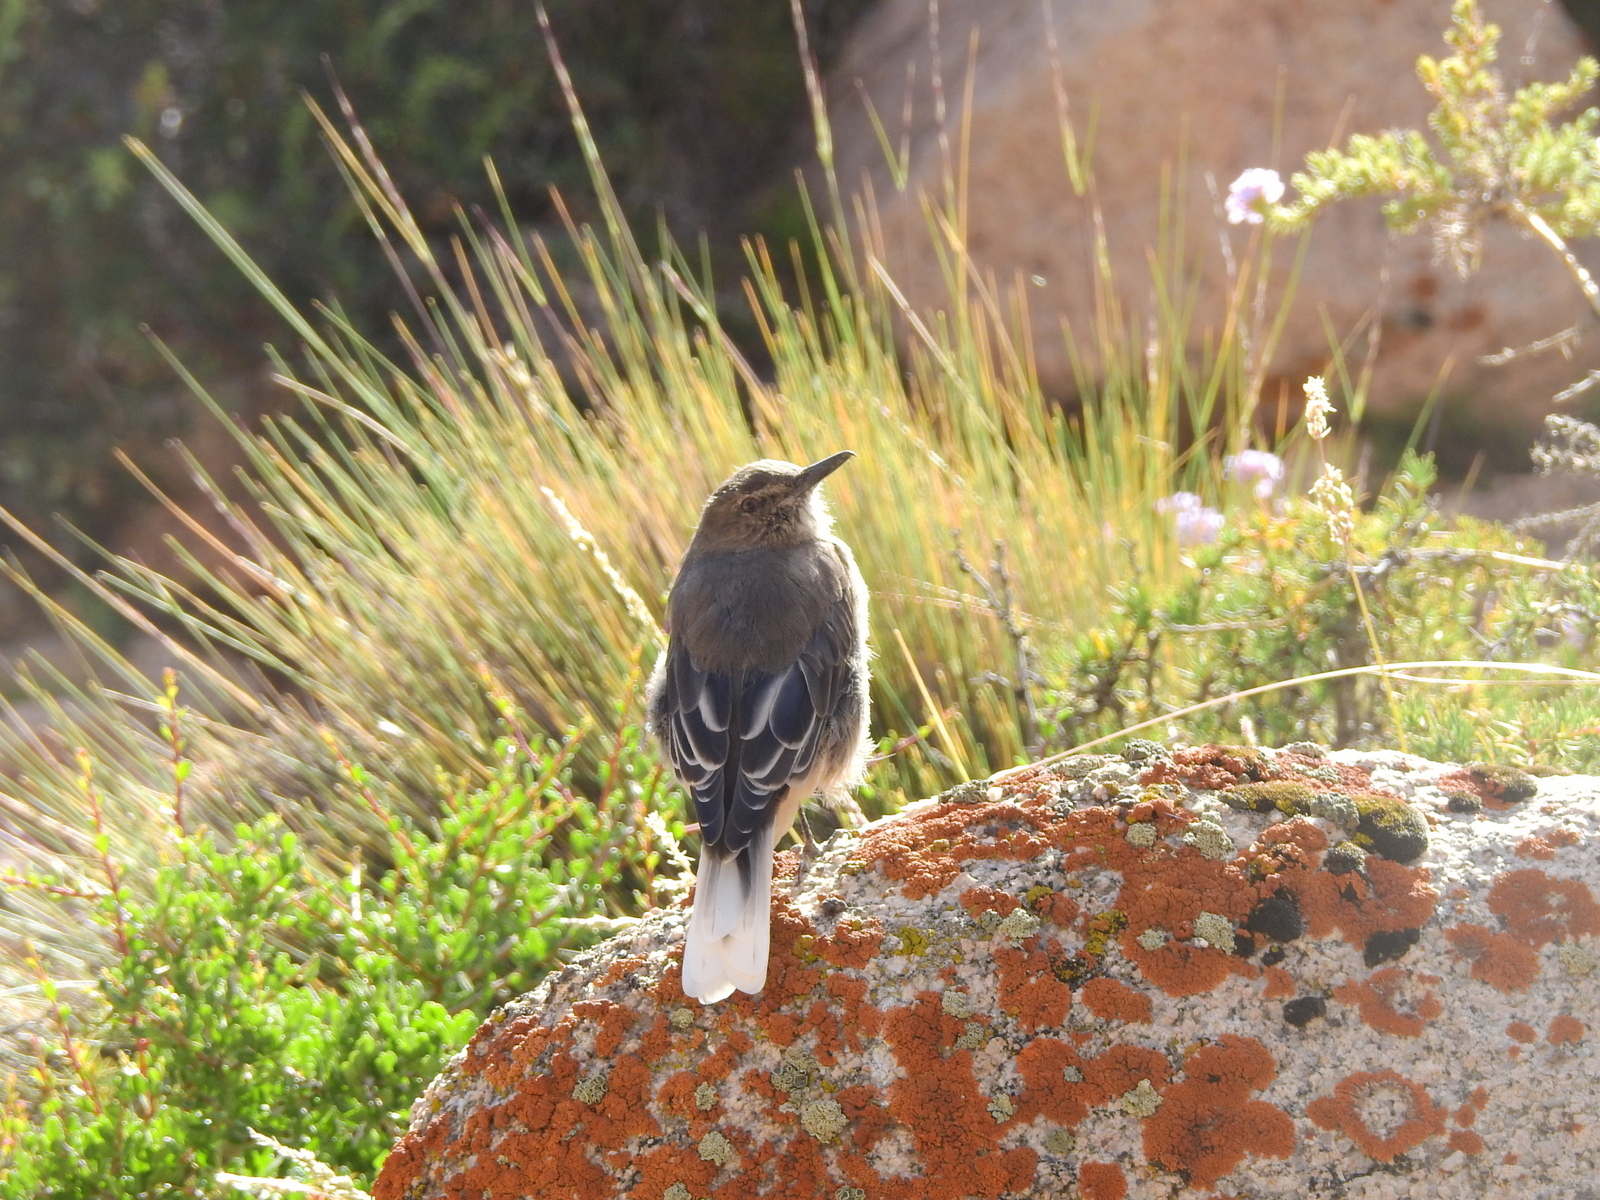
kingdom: Animalia
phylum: Chordata
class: Aves
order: Passeriformes
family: Tyrannidae
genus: Agriornis
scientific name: Agriornis montanus
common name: Black-billed shrike-tyrant
